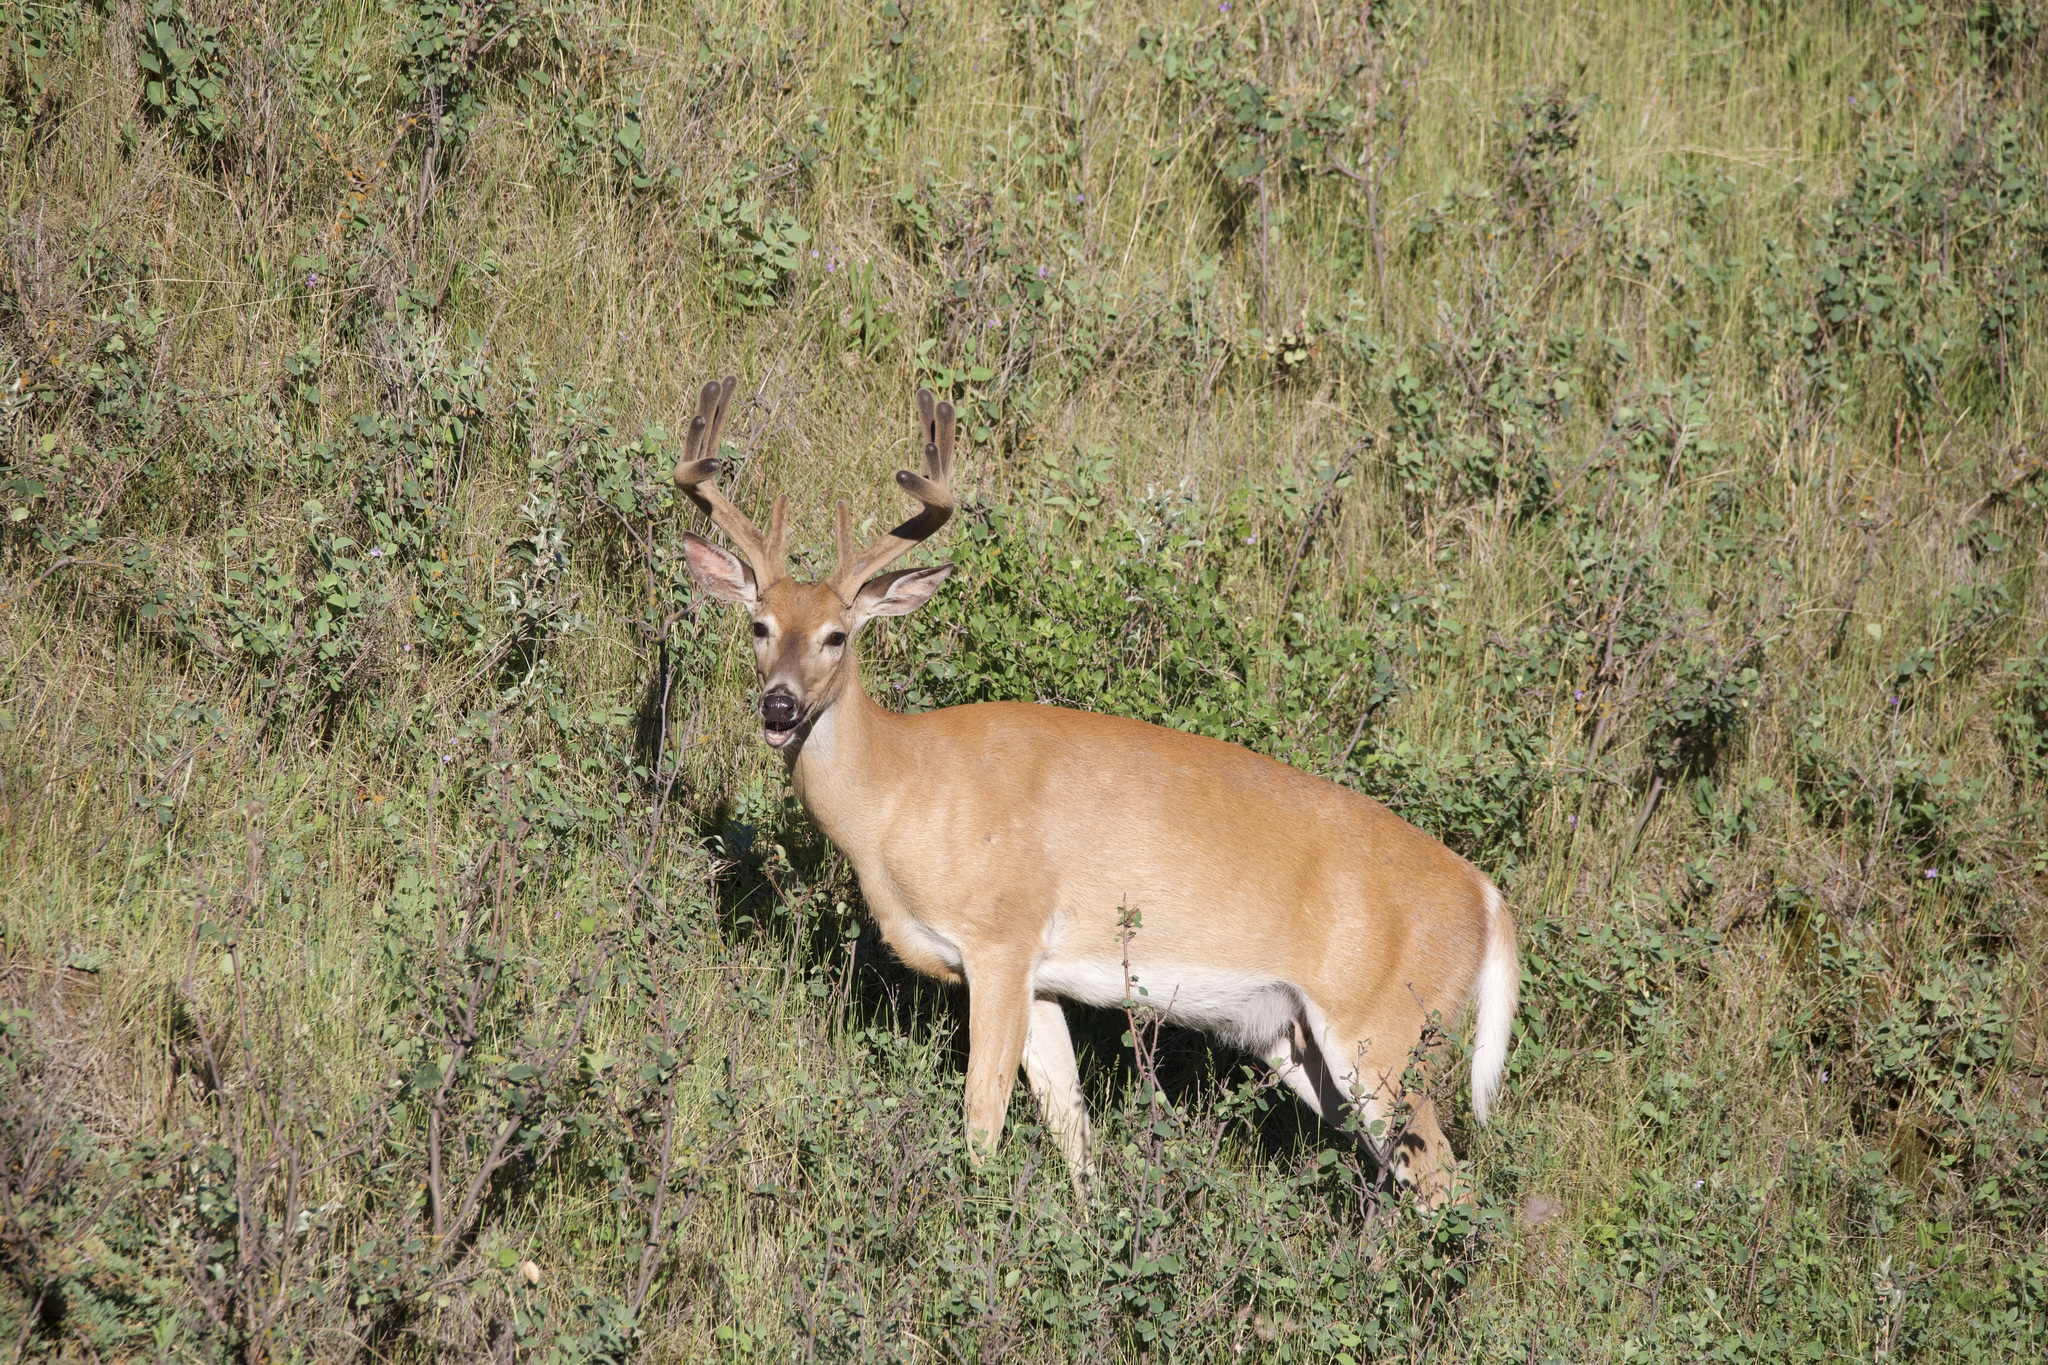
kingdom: Animalia
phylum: Chordata
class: Mammalia
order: Artiodactyla
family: Cervidae
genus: Odocoileus
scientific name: Odocoileus virginianus
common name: White-tailed deer
